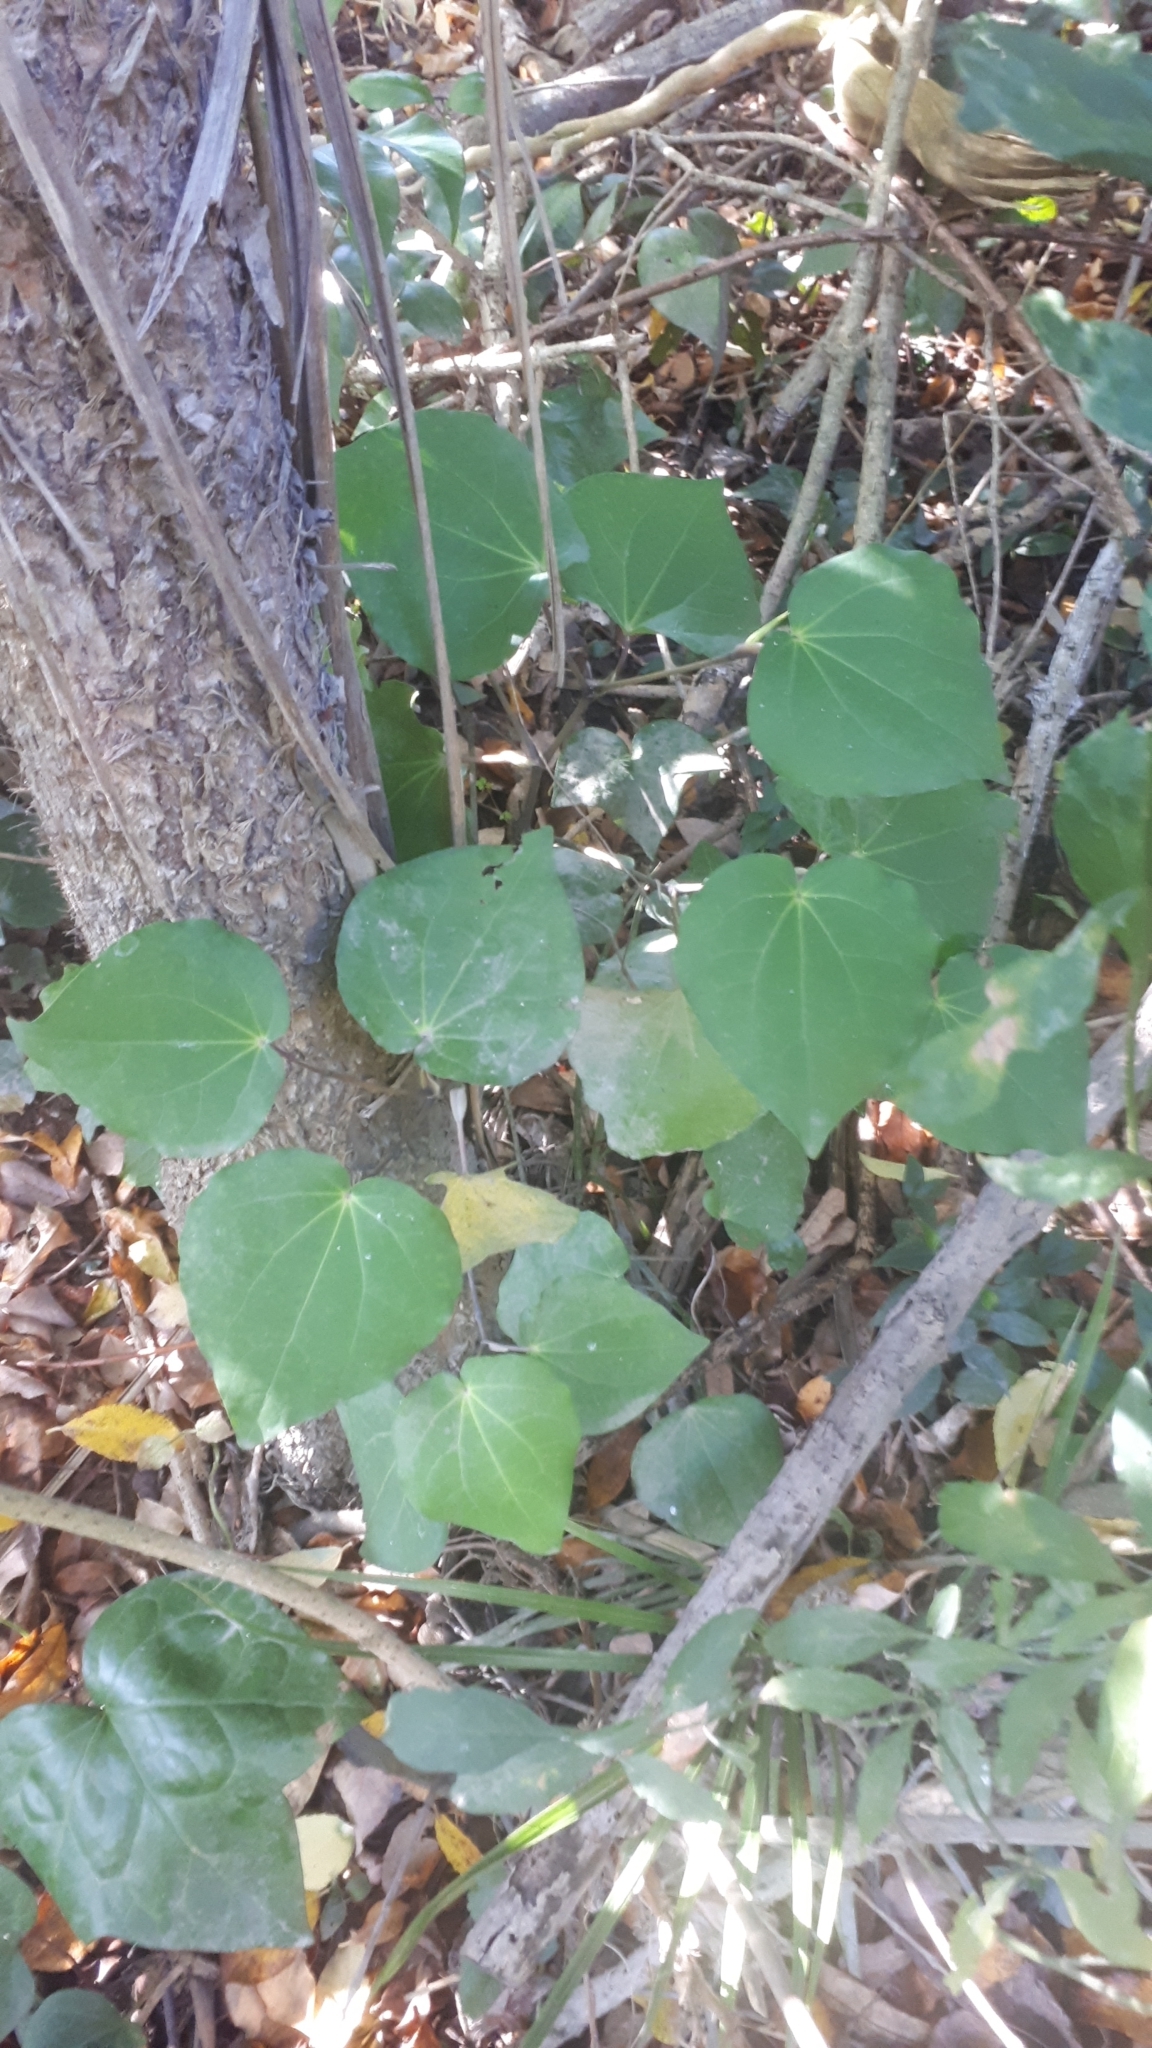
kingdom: Plantae
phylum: Tracheophyta
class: Magnoliopsida
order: Piperales
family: Piperaceae
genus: Macropiper
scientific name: Macropiper excelsum
